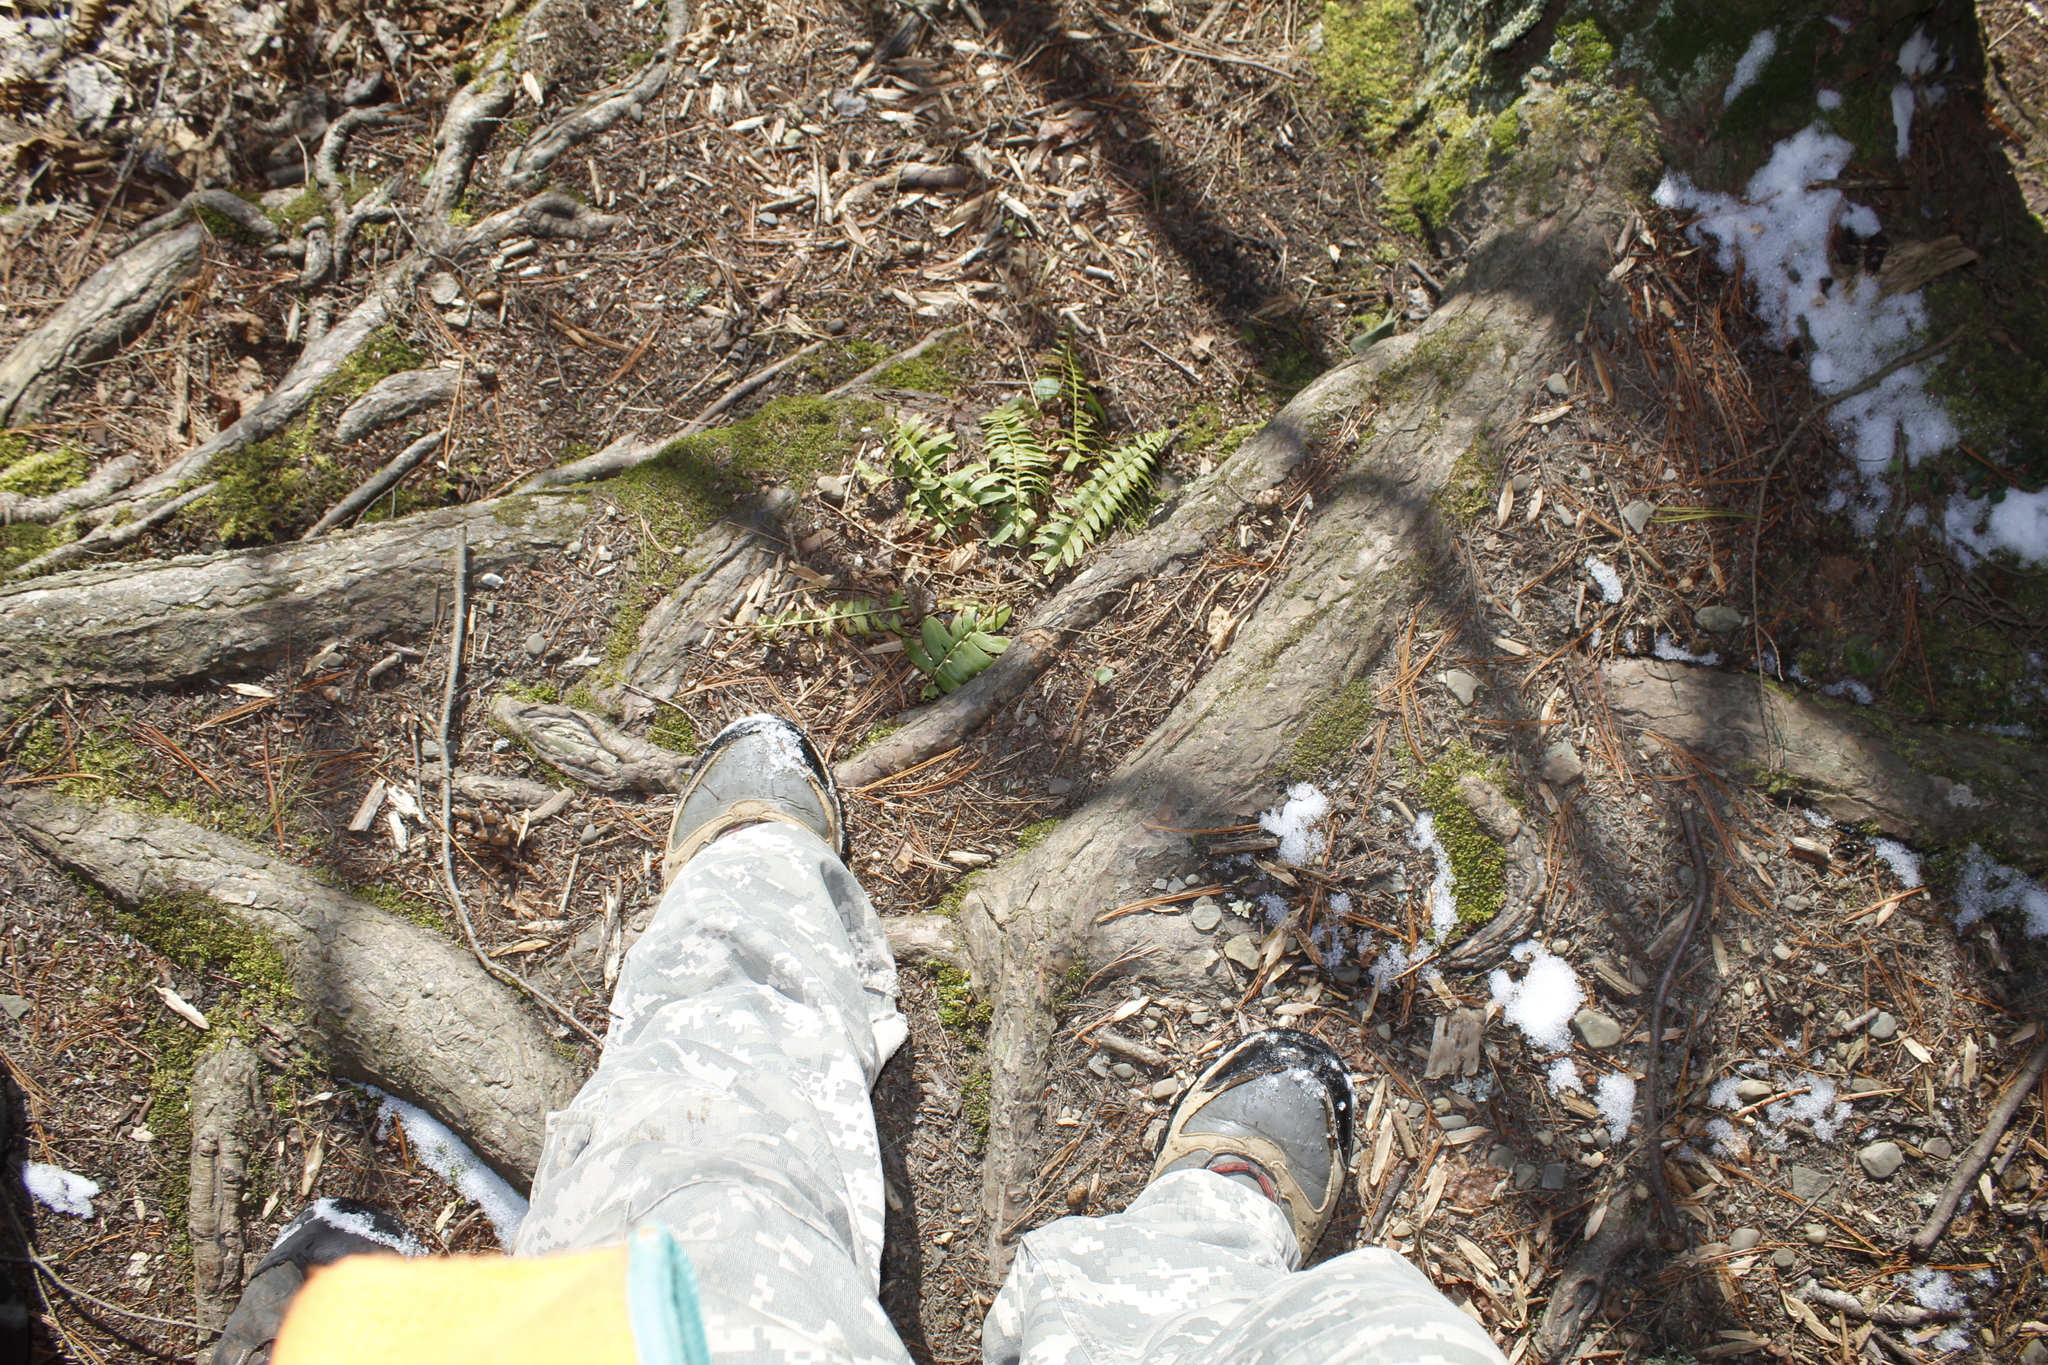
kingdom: Plantae
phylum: Tracheophyta
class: Polypodiopsida
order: Polypodiales
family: Dryopteridaceae
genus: Polystichum
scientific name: Polystichum acrostichoides
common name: Christmas fern
